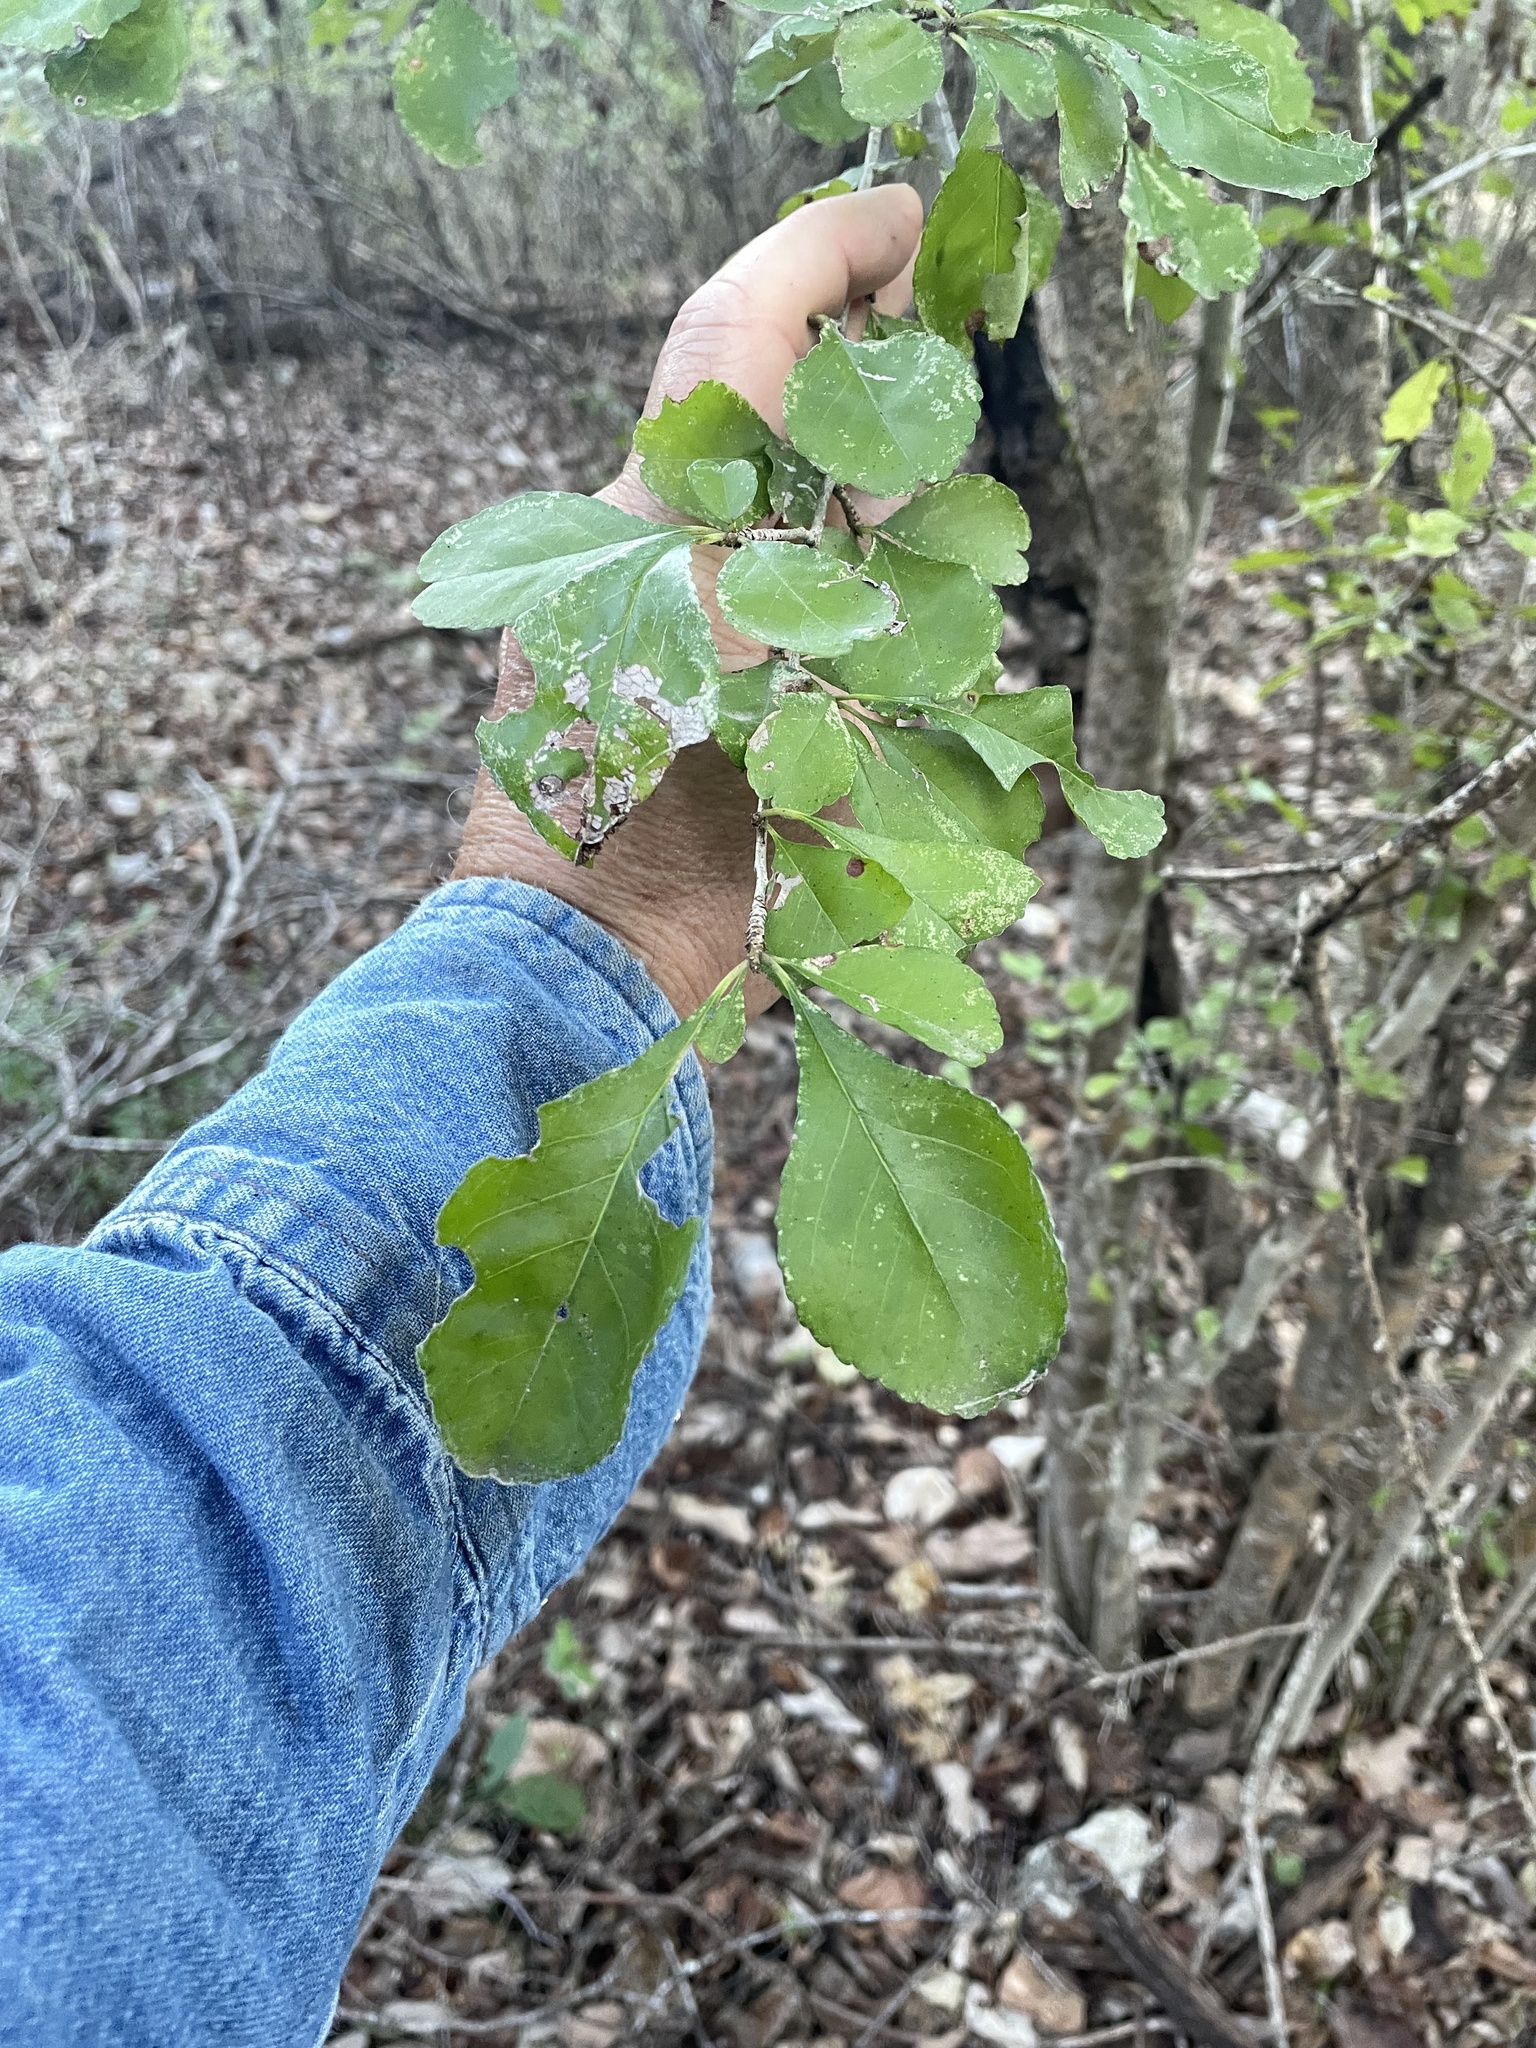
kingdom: Plantae
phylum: Tracheophyta
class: Magnoliopsida
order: Aquifoliales
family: Aquifoliaceae
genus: Ilex
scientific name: Ilex decidua
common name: Possum-haw
